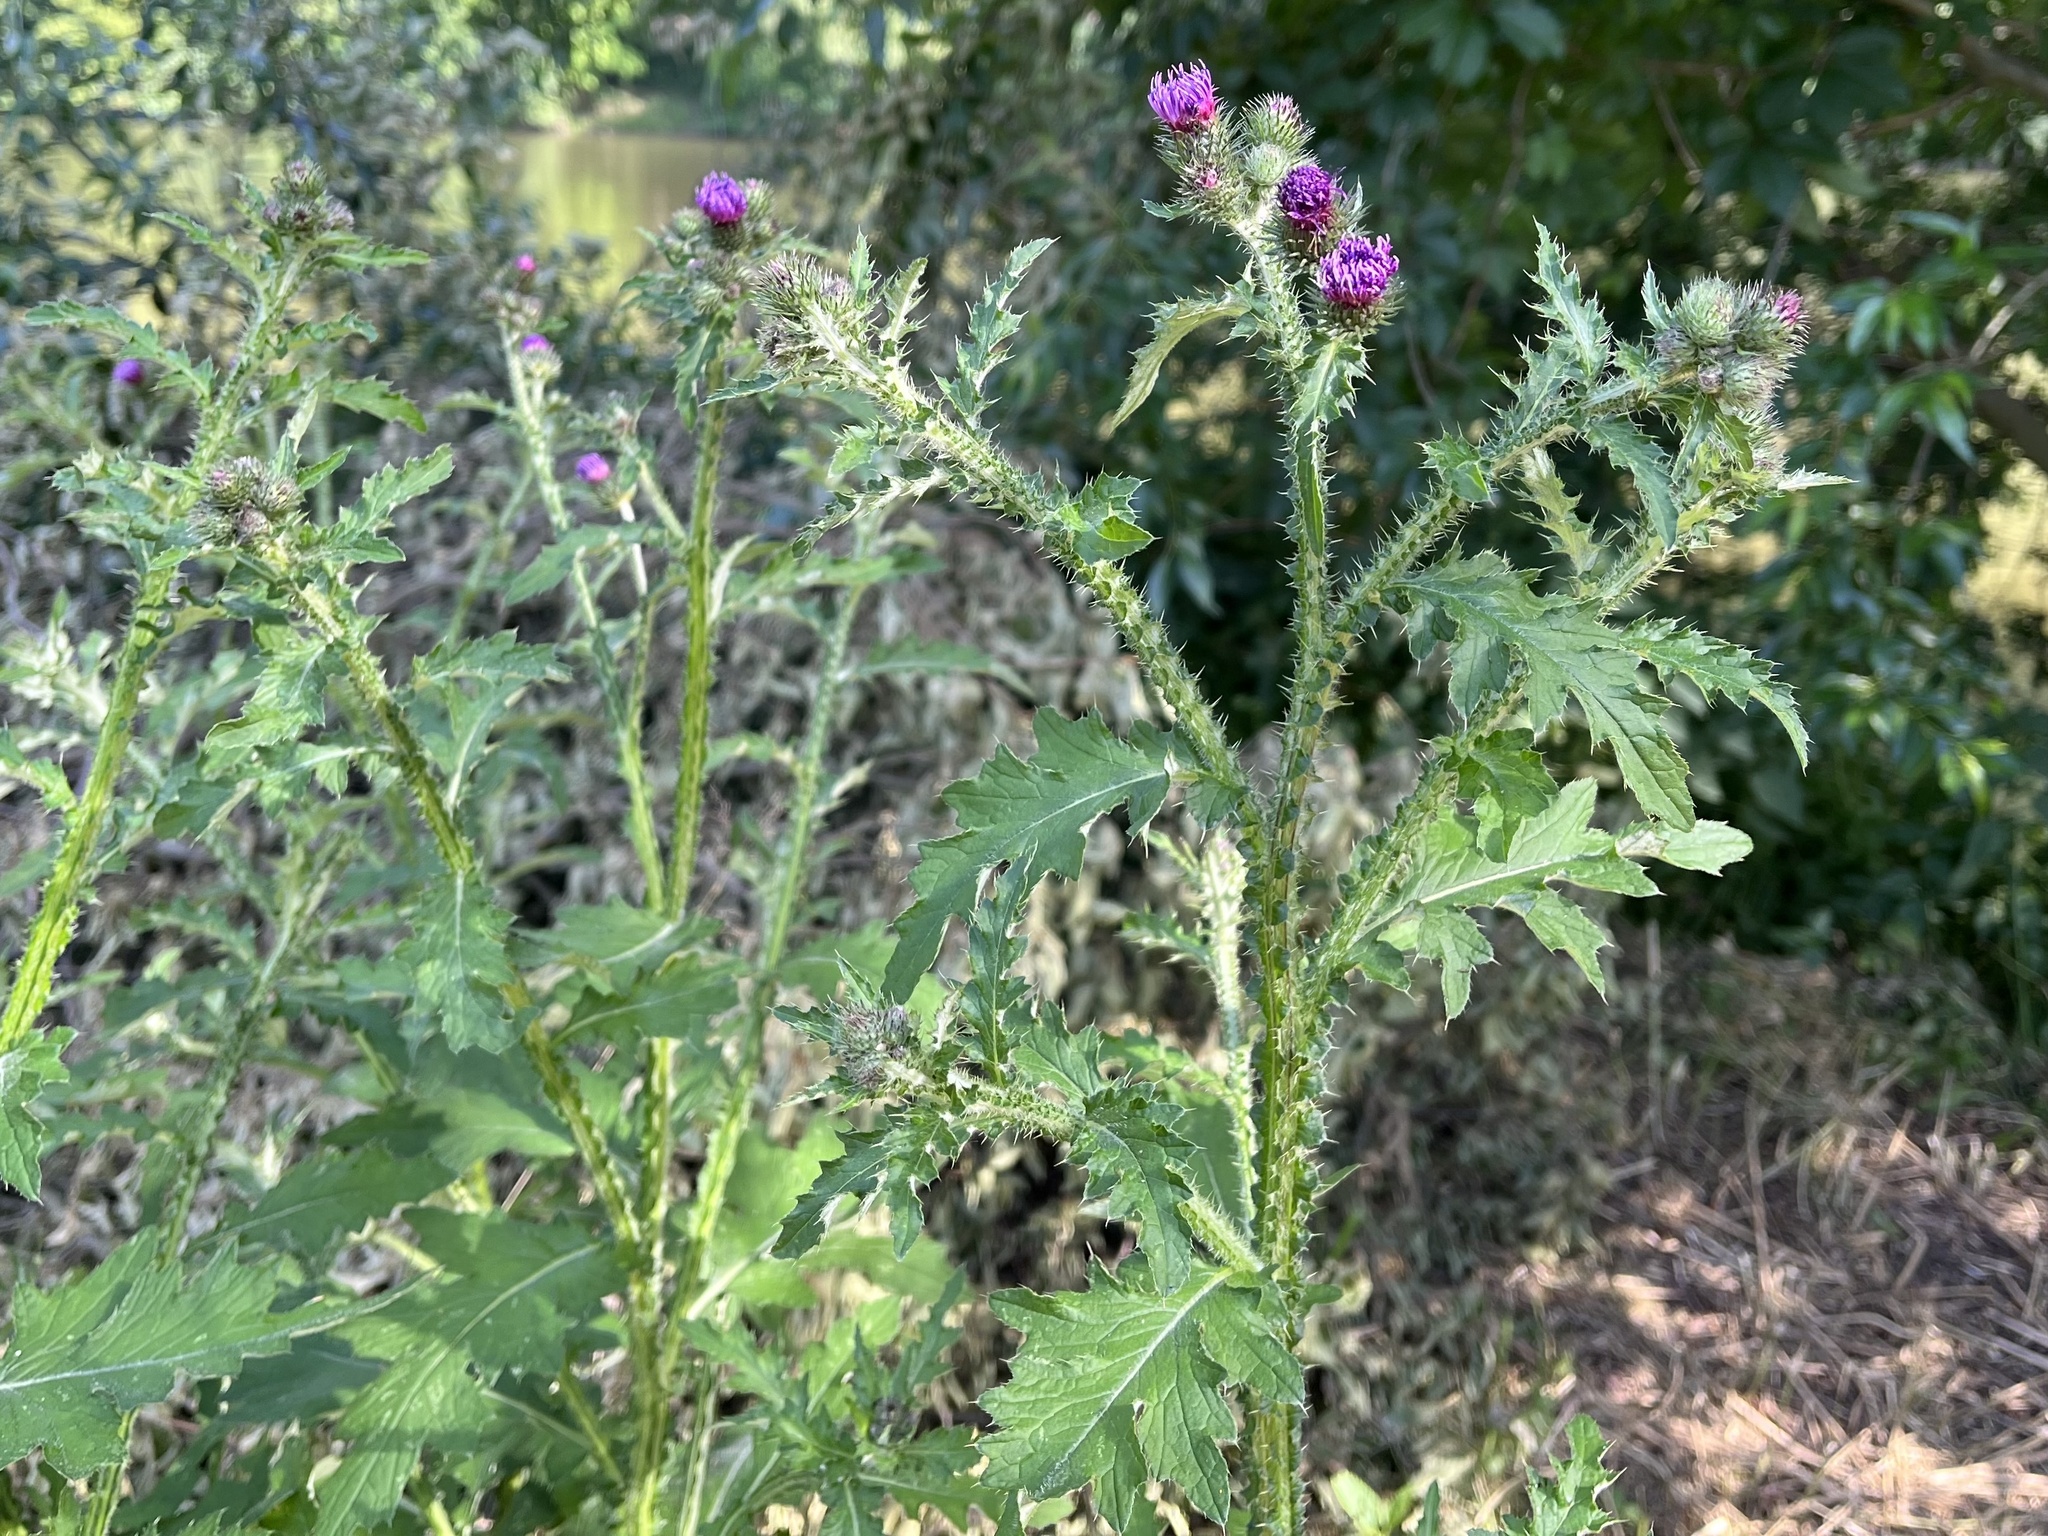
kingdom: Plantae
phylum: Tracheophyta
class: Magnoliopsida
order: Asterales
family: Asteraceae
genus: Carduus
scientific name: Carduus crispus
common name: Welted thistle
